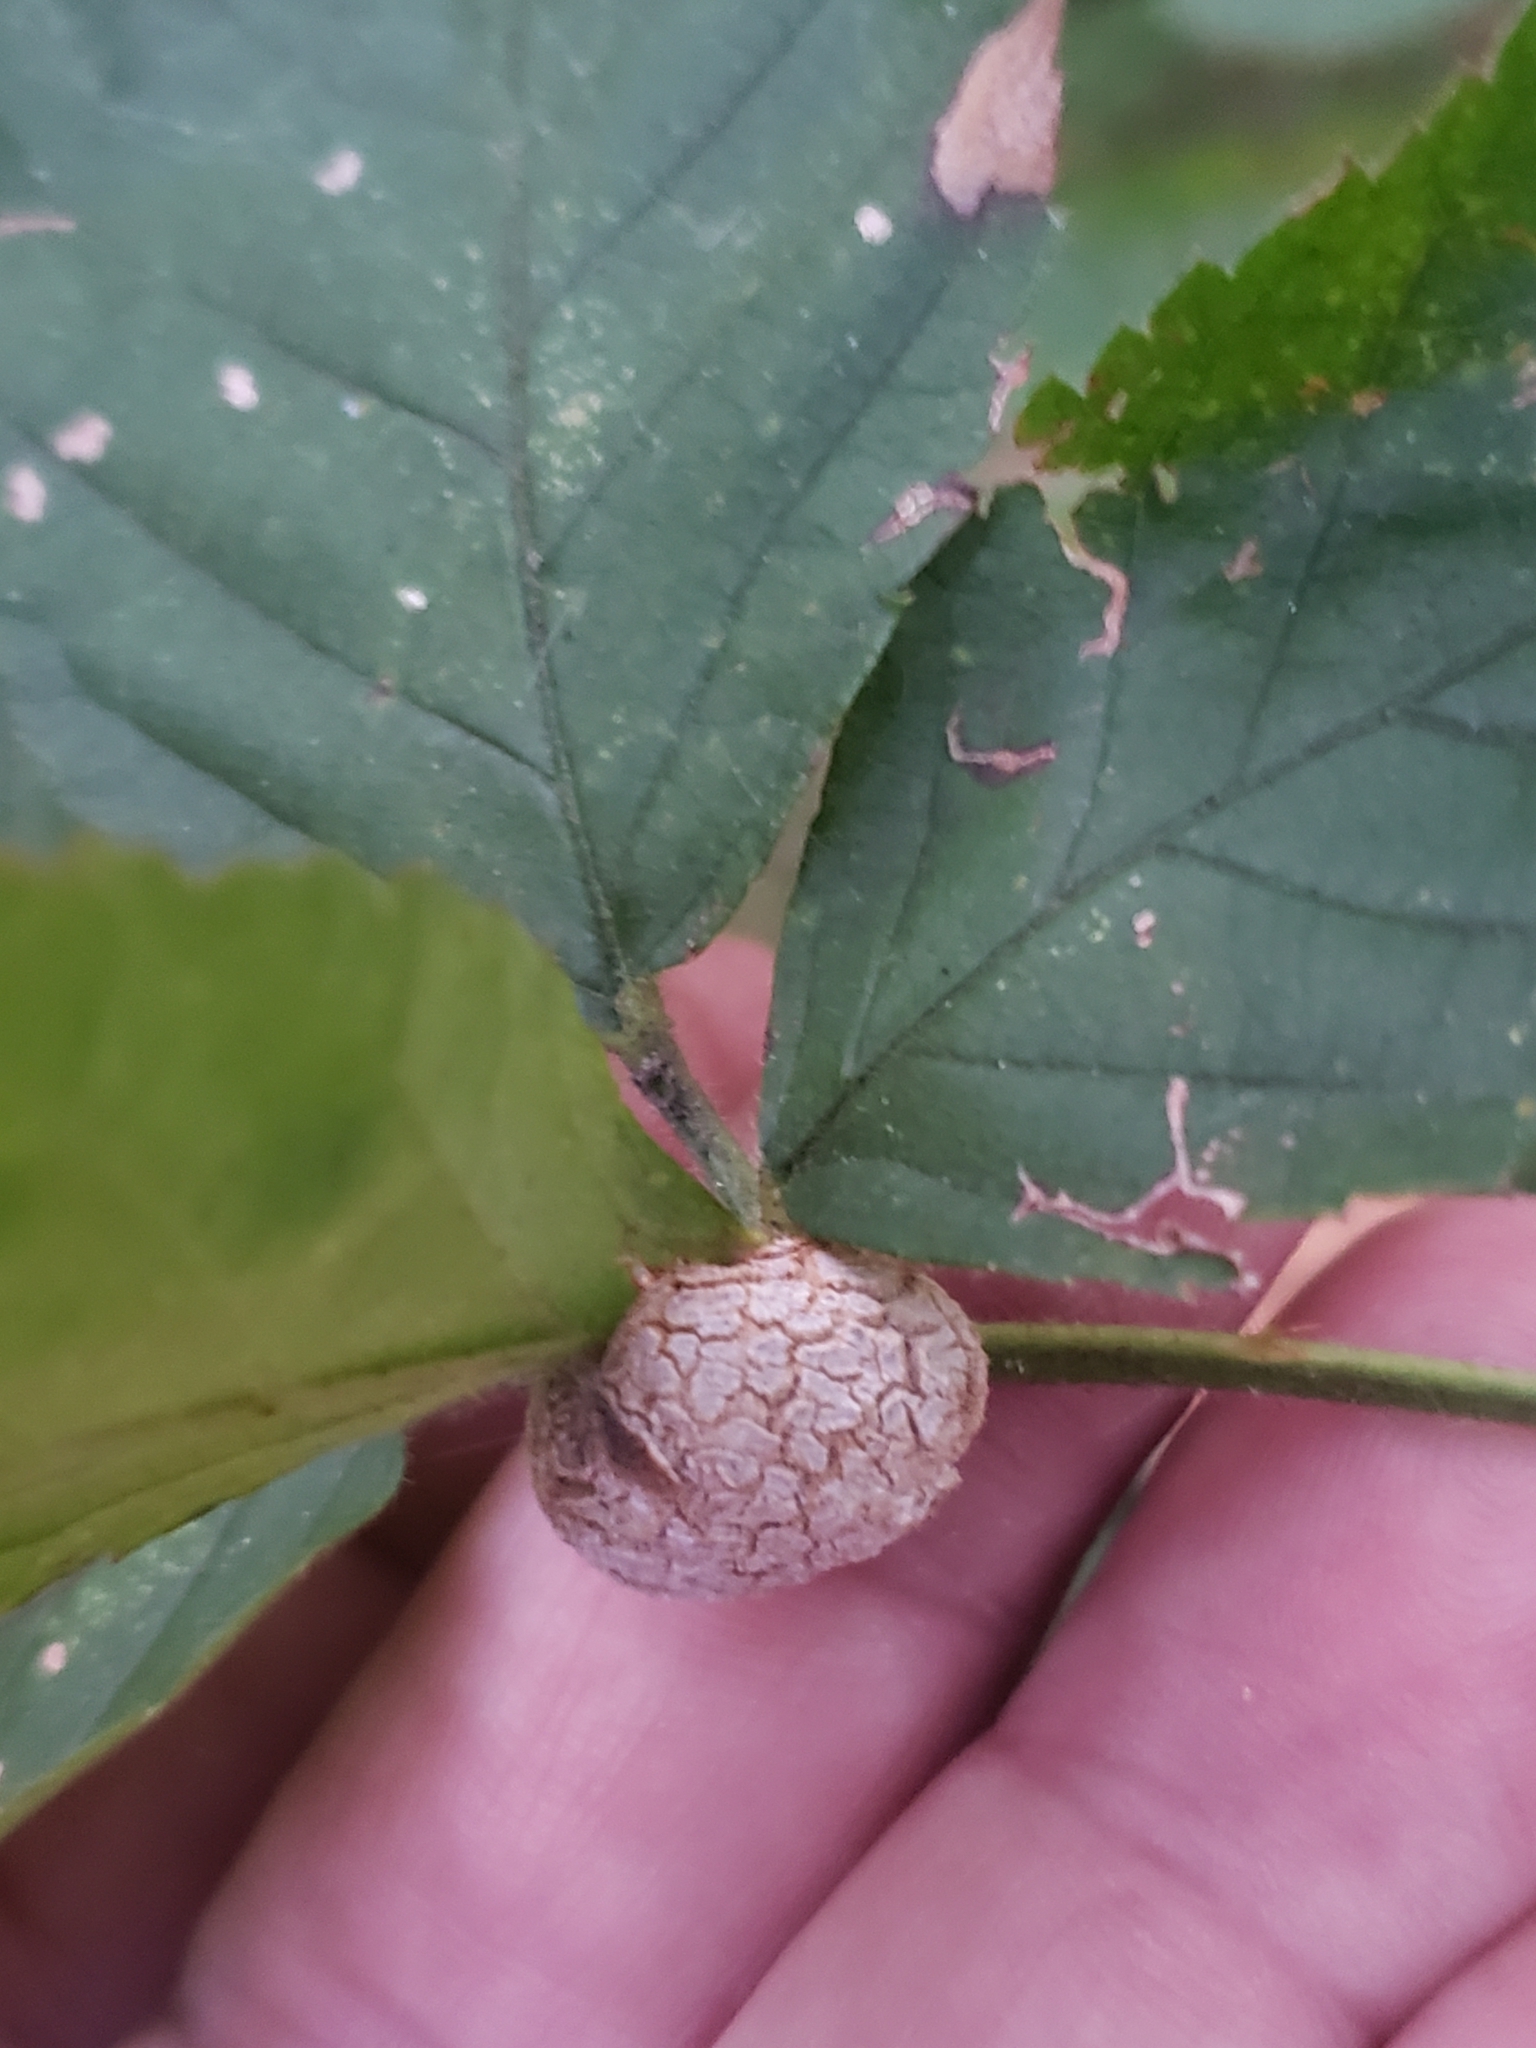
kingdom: Animalia
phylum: Arthropoda
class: Insecta
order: Diptera
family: Cecidomyiidae
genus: Neolasioptera
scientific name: Neolasioptera farinosa
